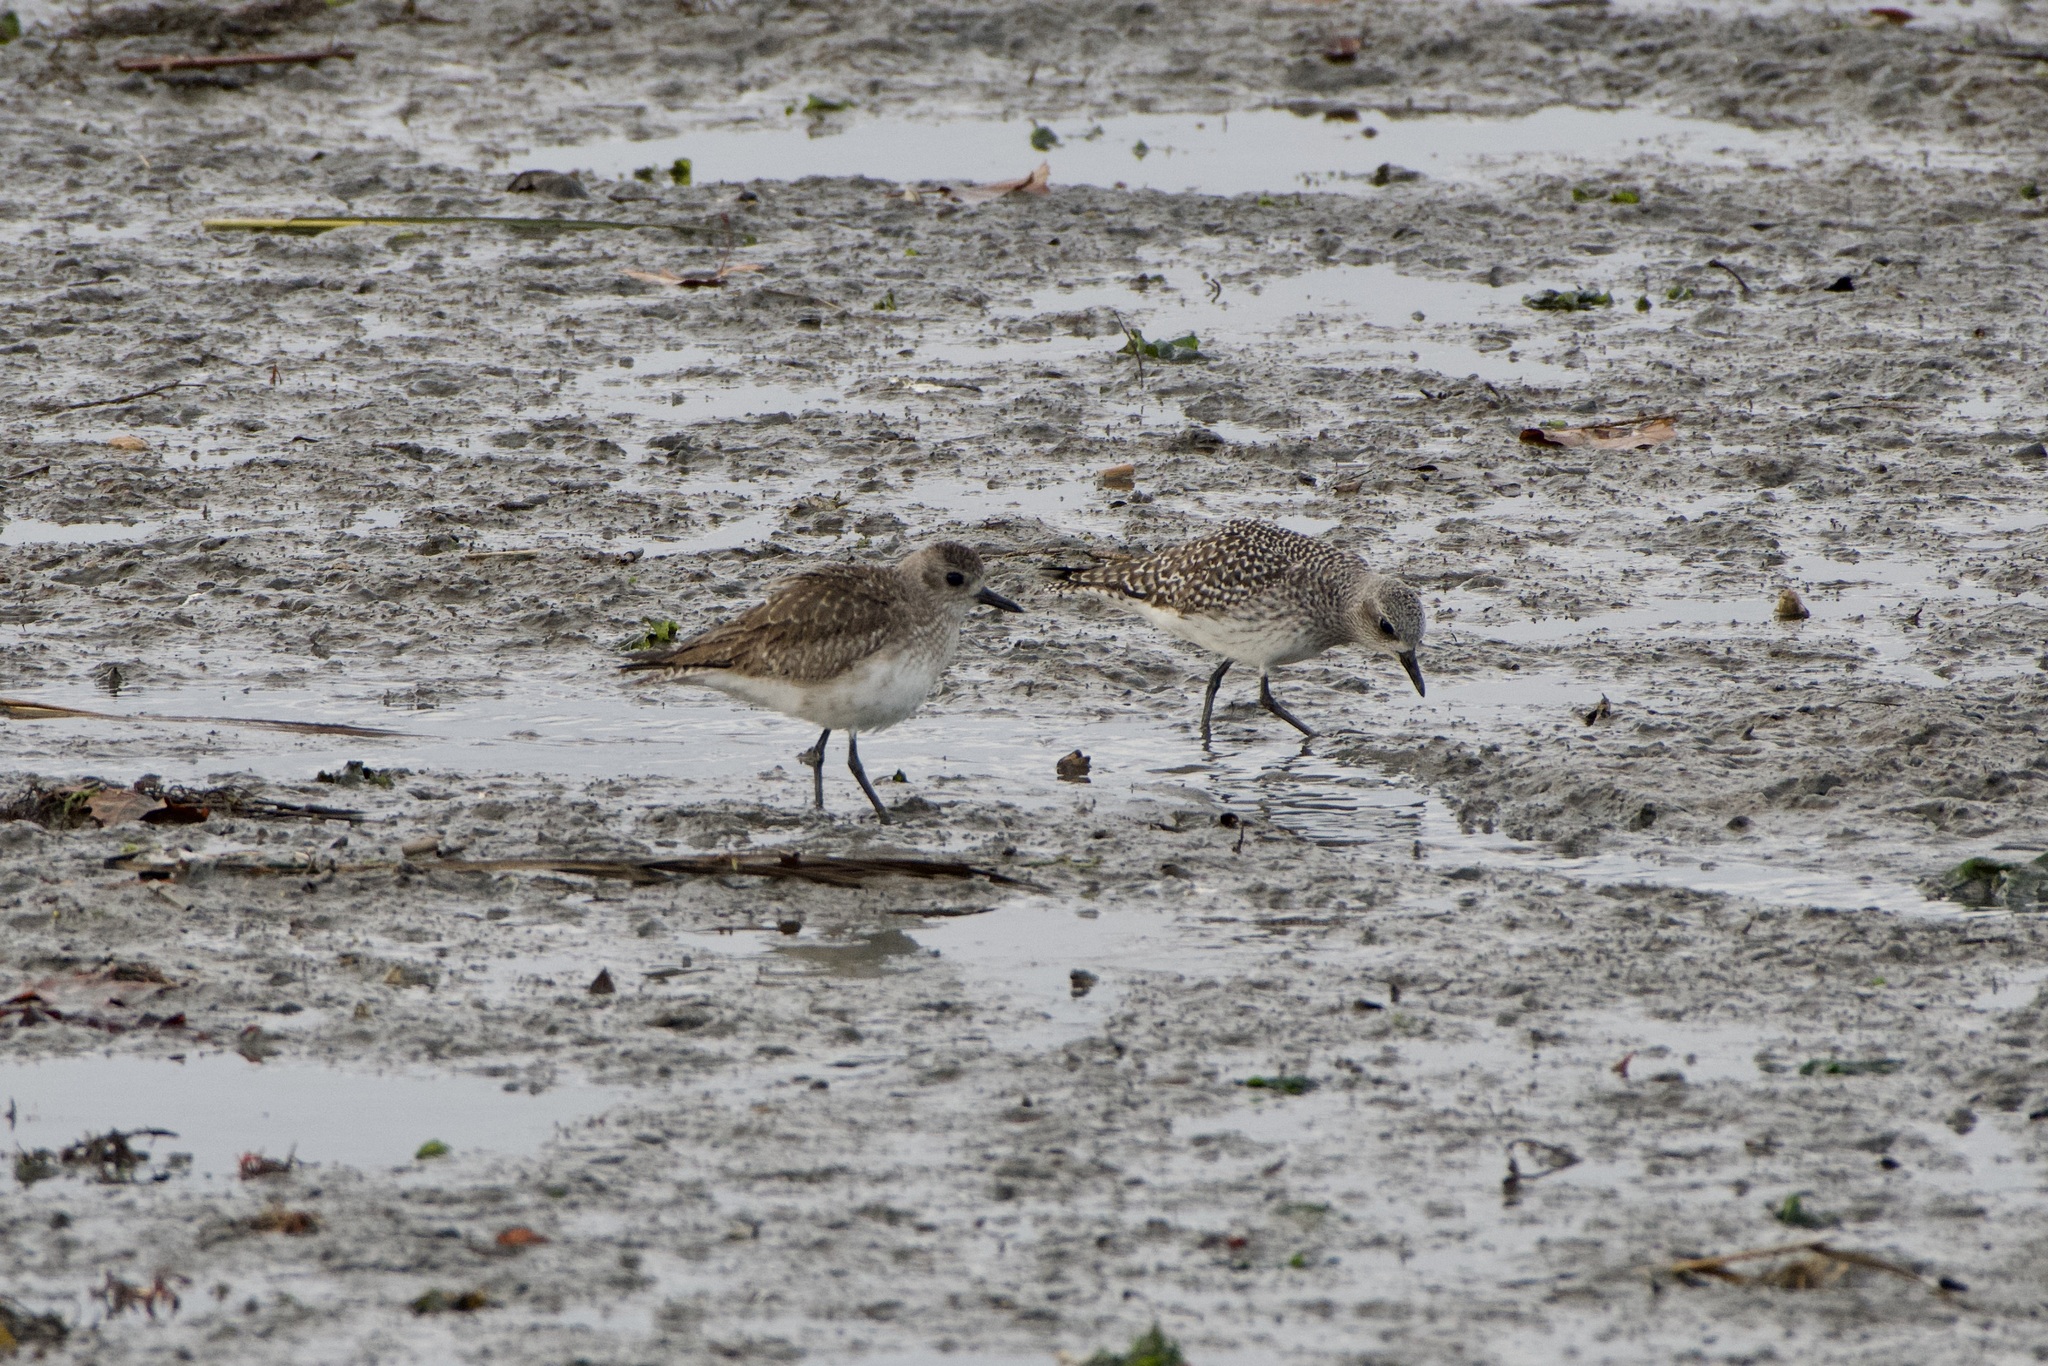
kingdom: Animalia
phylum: Chordata
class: Aves
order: Charadriiformes
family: Charadriidae
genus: Pluvialis
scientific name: Pluvialis squatarola
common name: Grey plover
